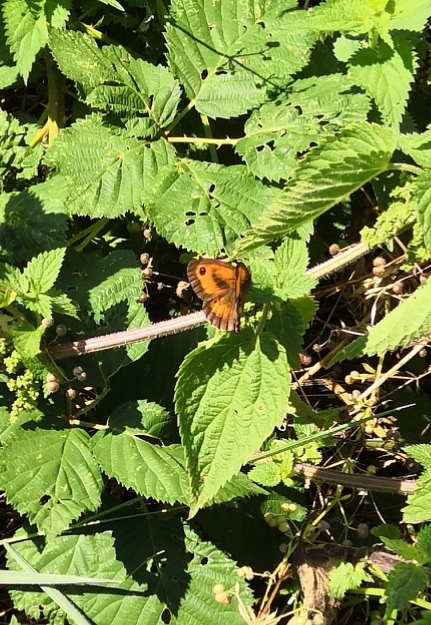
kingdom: Animalia
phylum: Arthropoda
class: Insecta
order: Lepidoptera
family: Nymphalidae
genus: Pyronia
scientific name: Pyronia tithonus
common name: Gatekeeper
